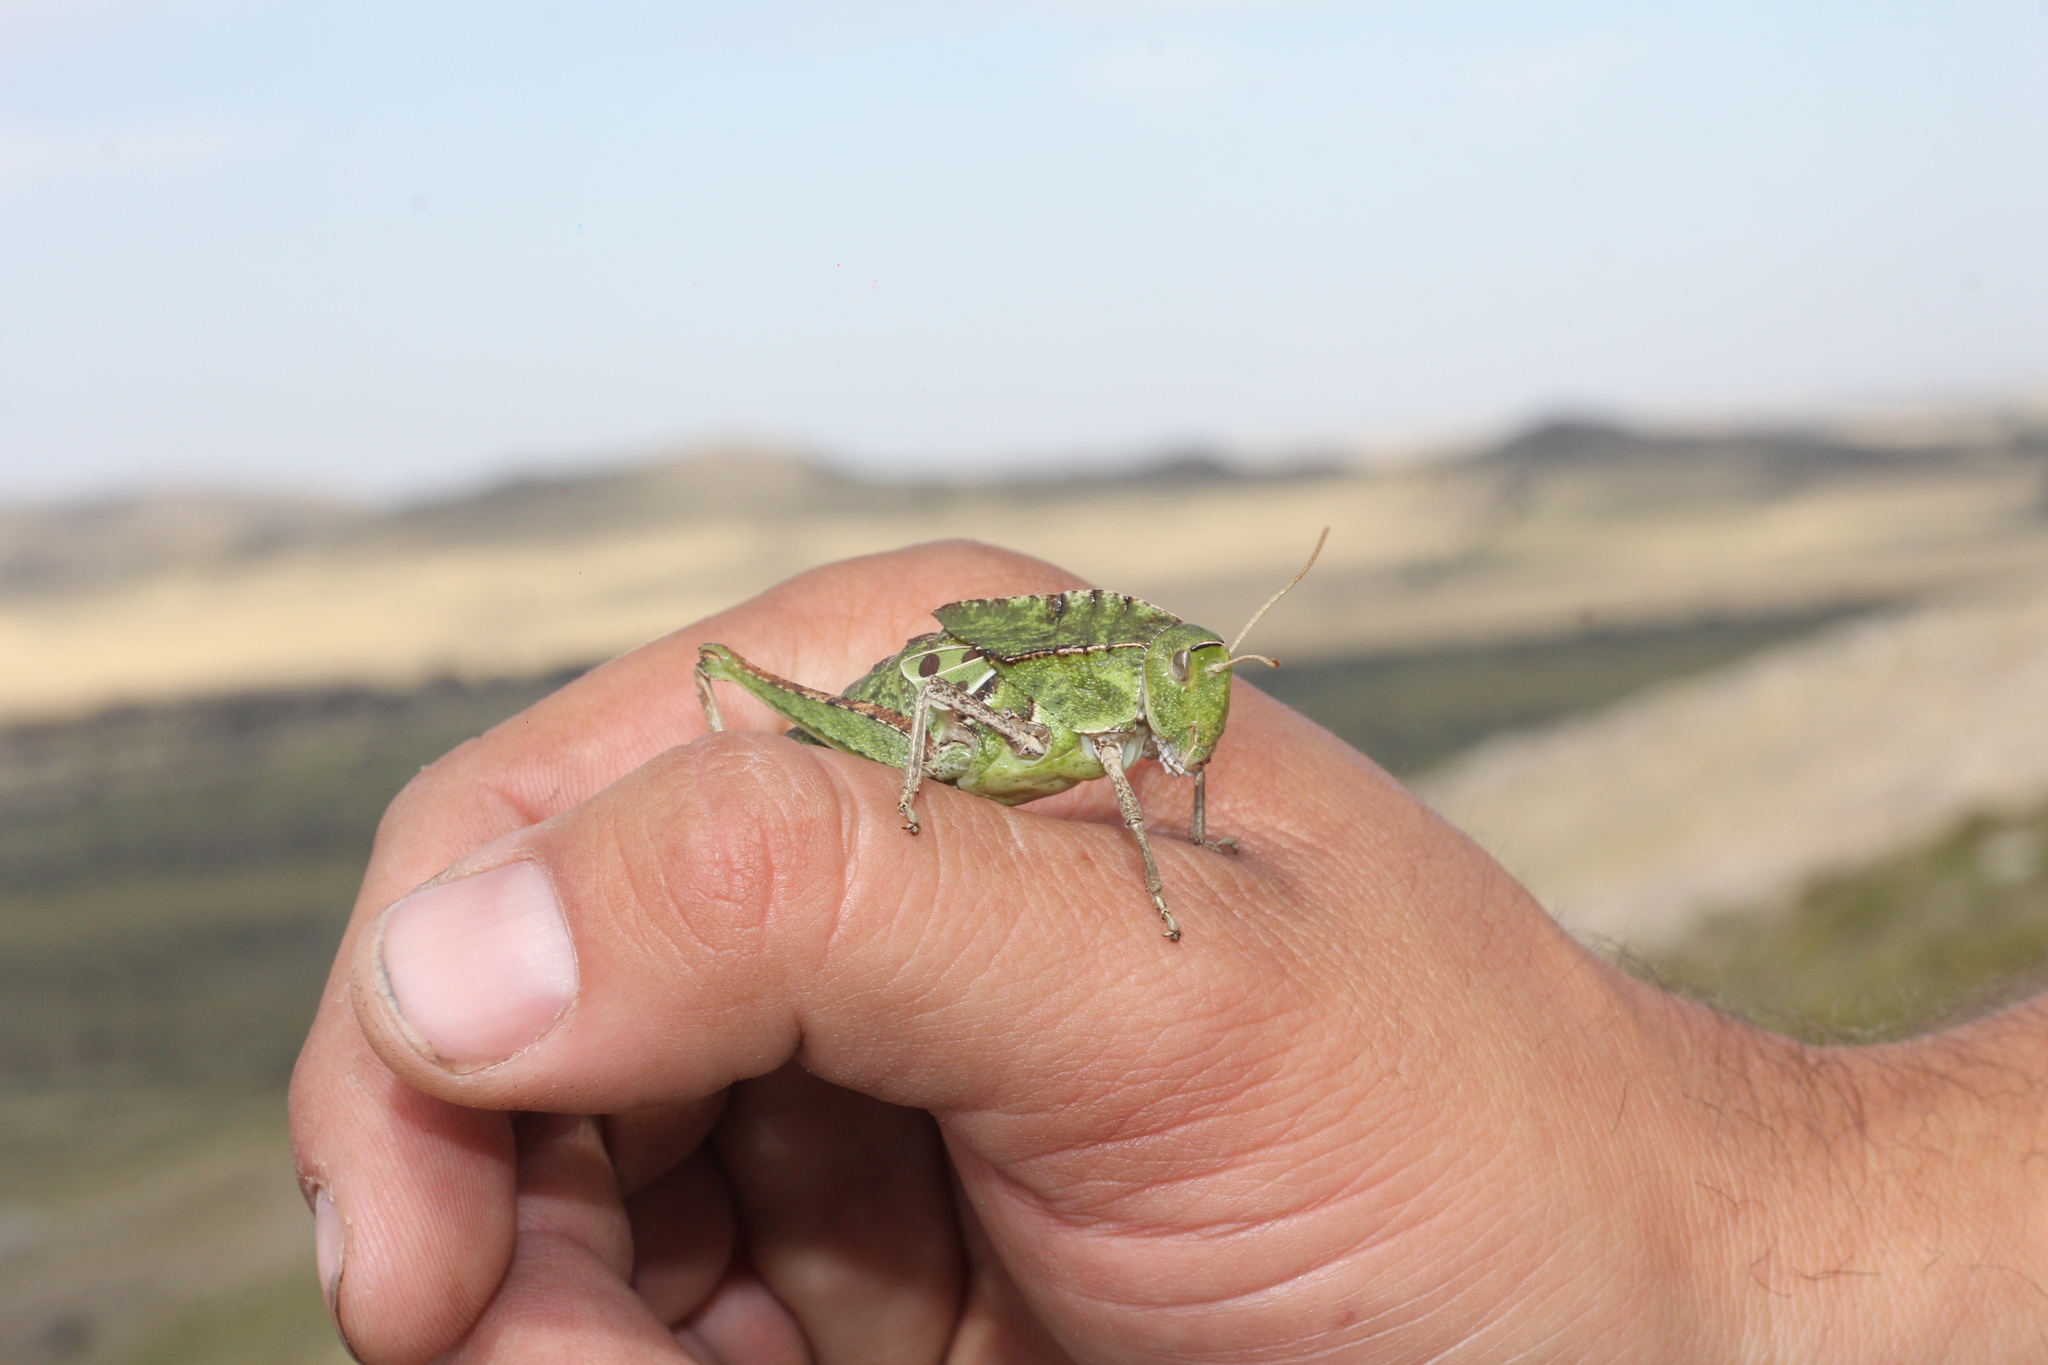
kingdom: Animalia
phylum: Arthropoda
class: Insecta
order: Orthoptera
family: Romaleidae
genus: Alcamenes
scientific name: Alcamenes granulatus
